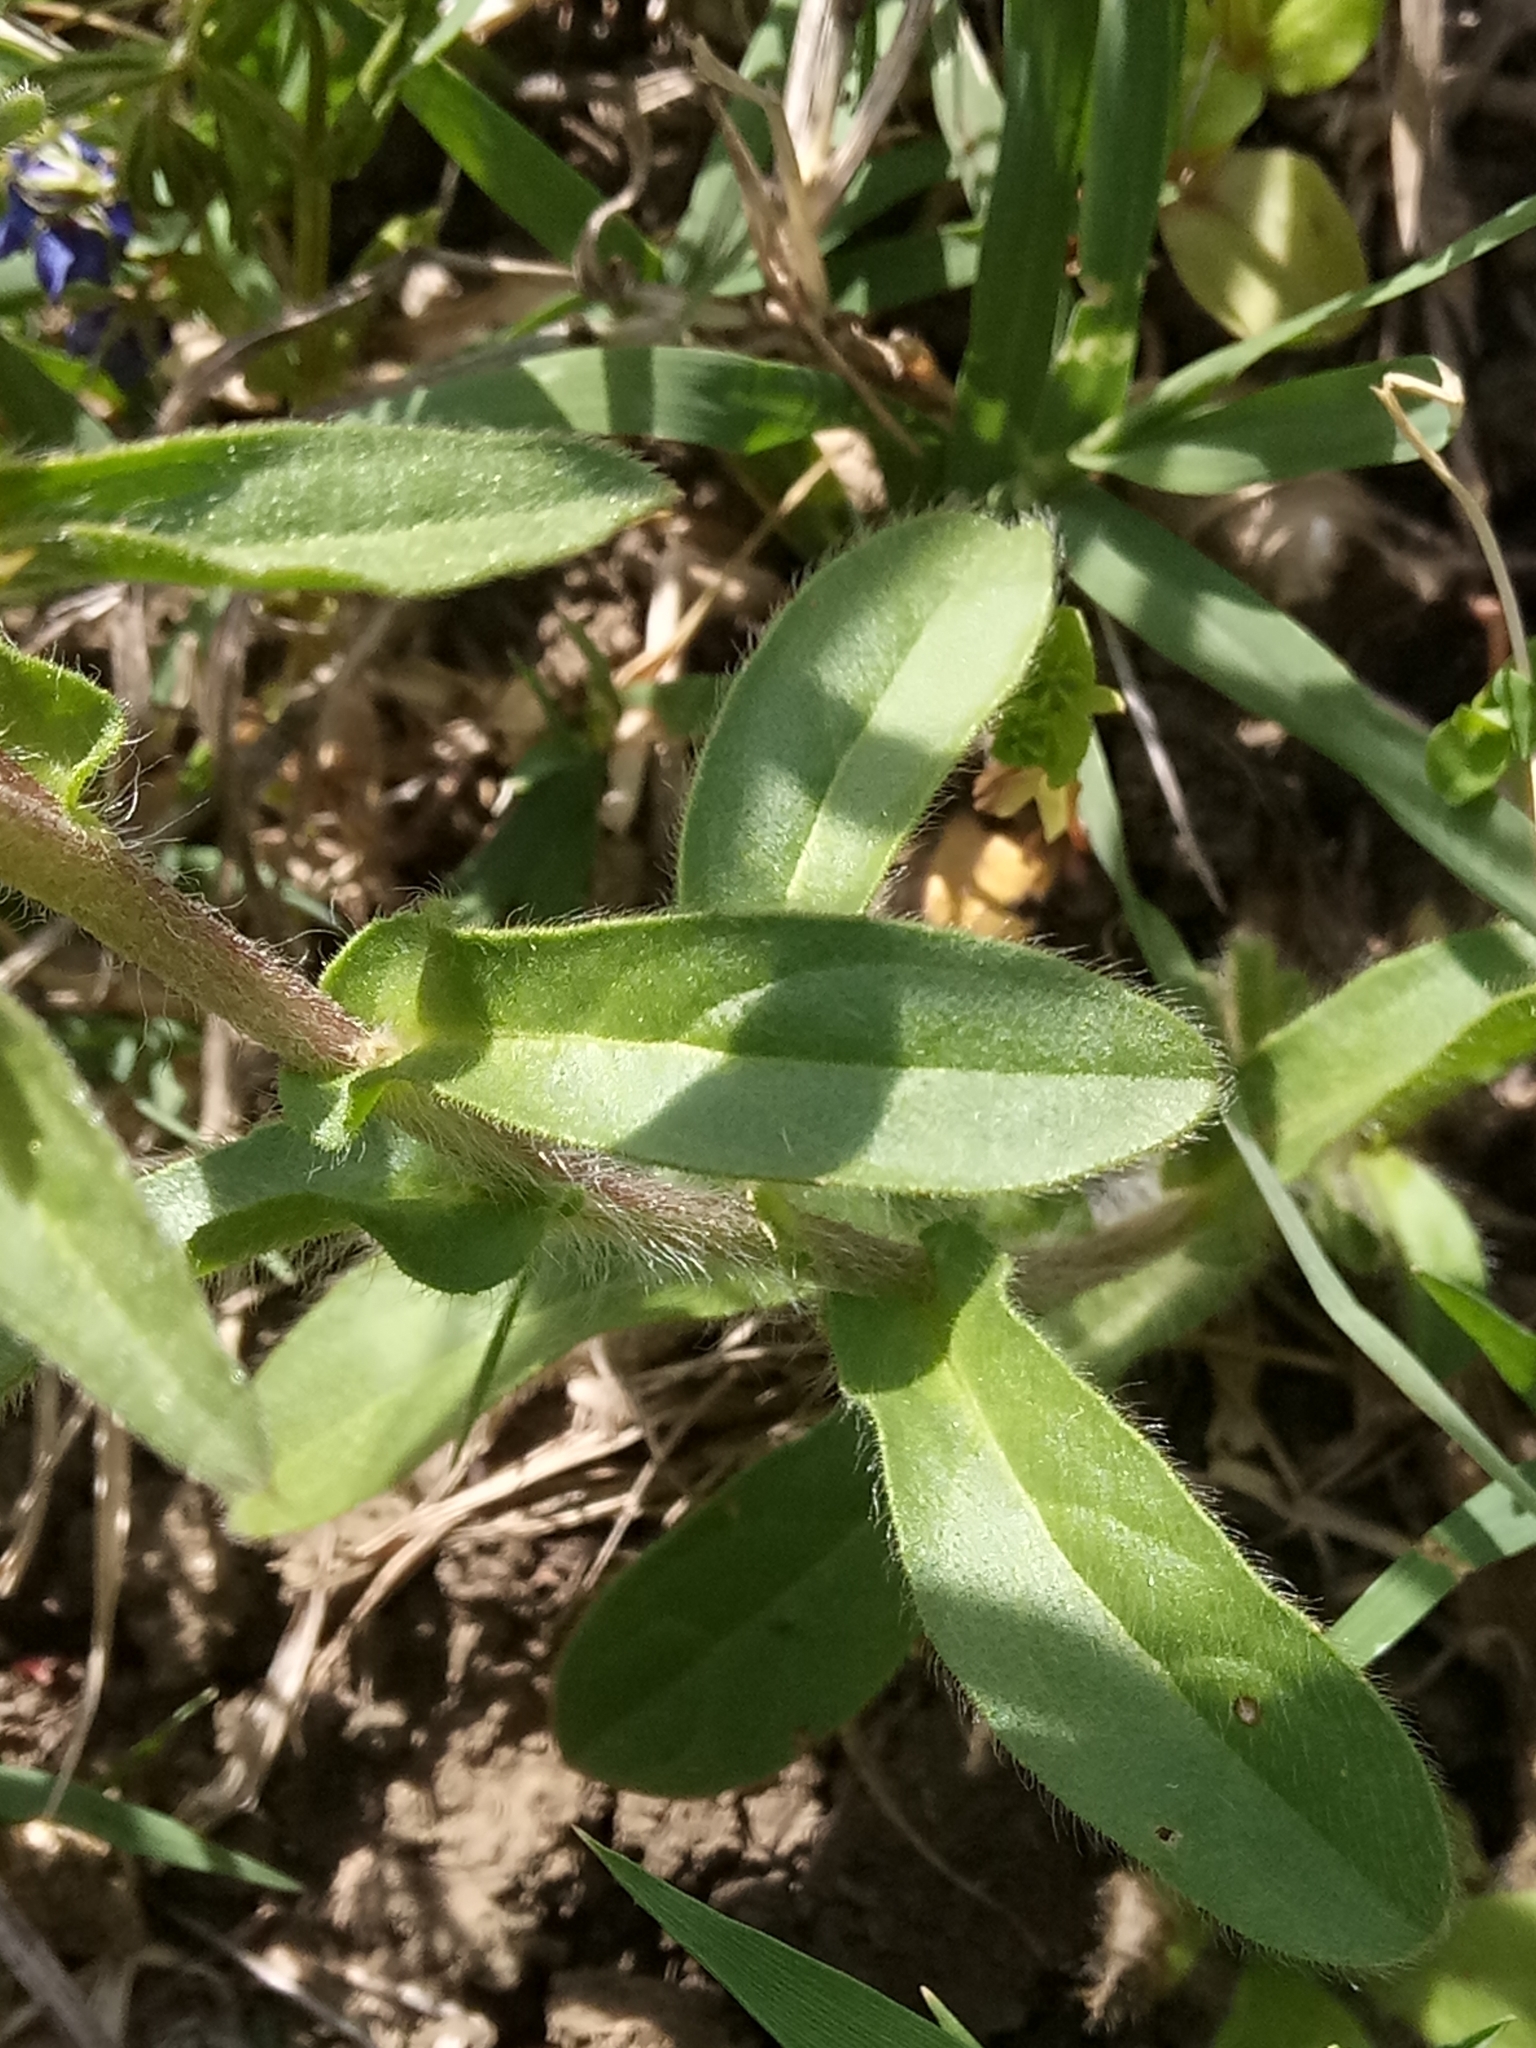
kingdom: Plantae
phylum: Tracheophyta
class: Magnoliopsida
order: Asterales
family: Asteraceae
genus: Pallenis
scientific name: Pallenis spinosa
